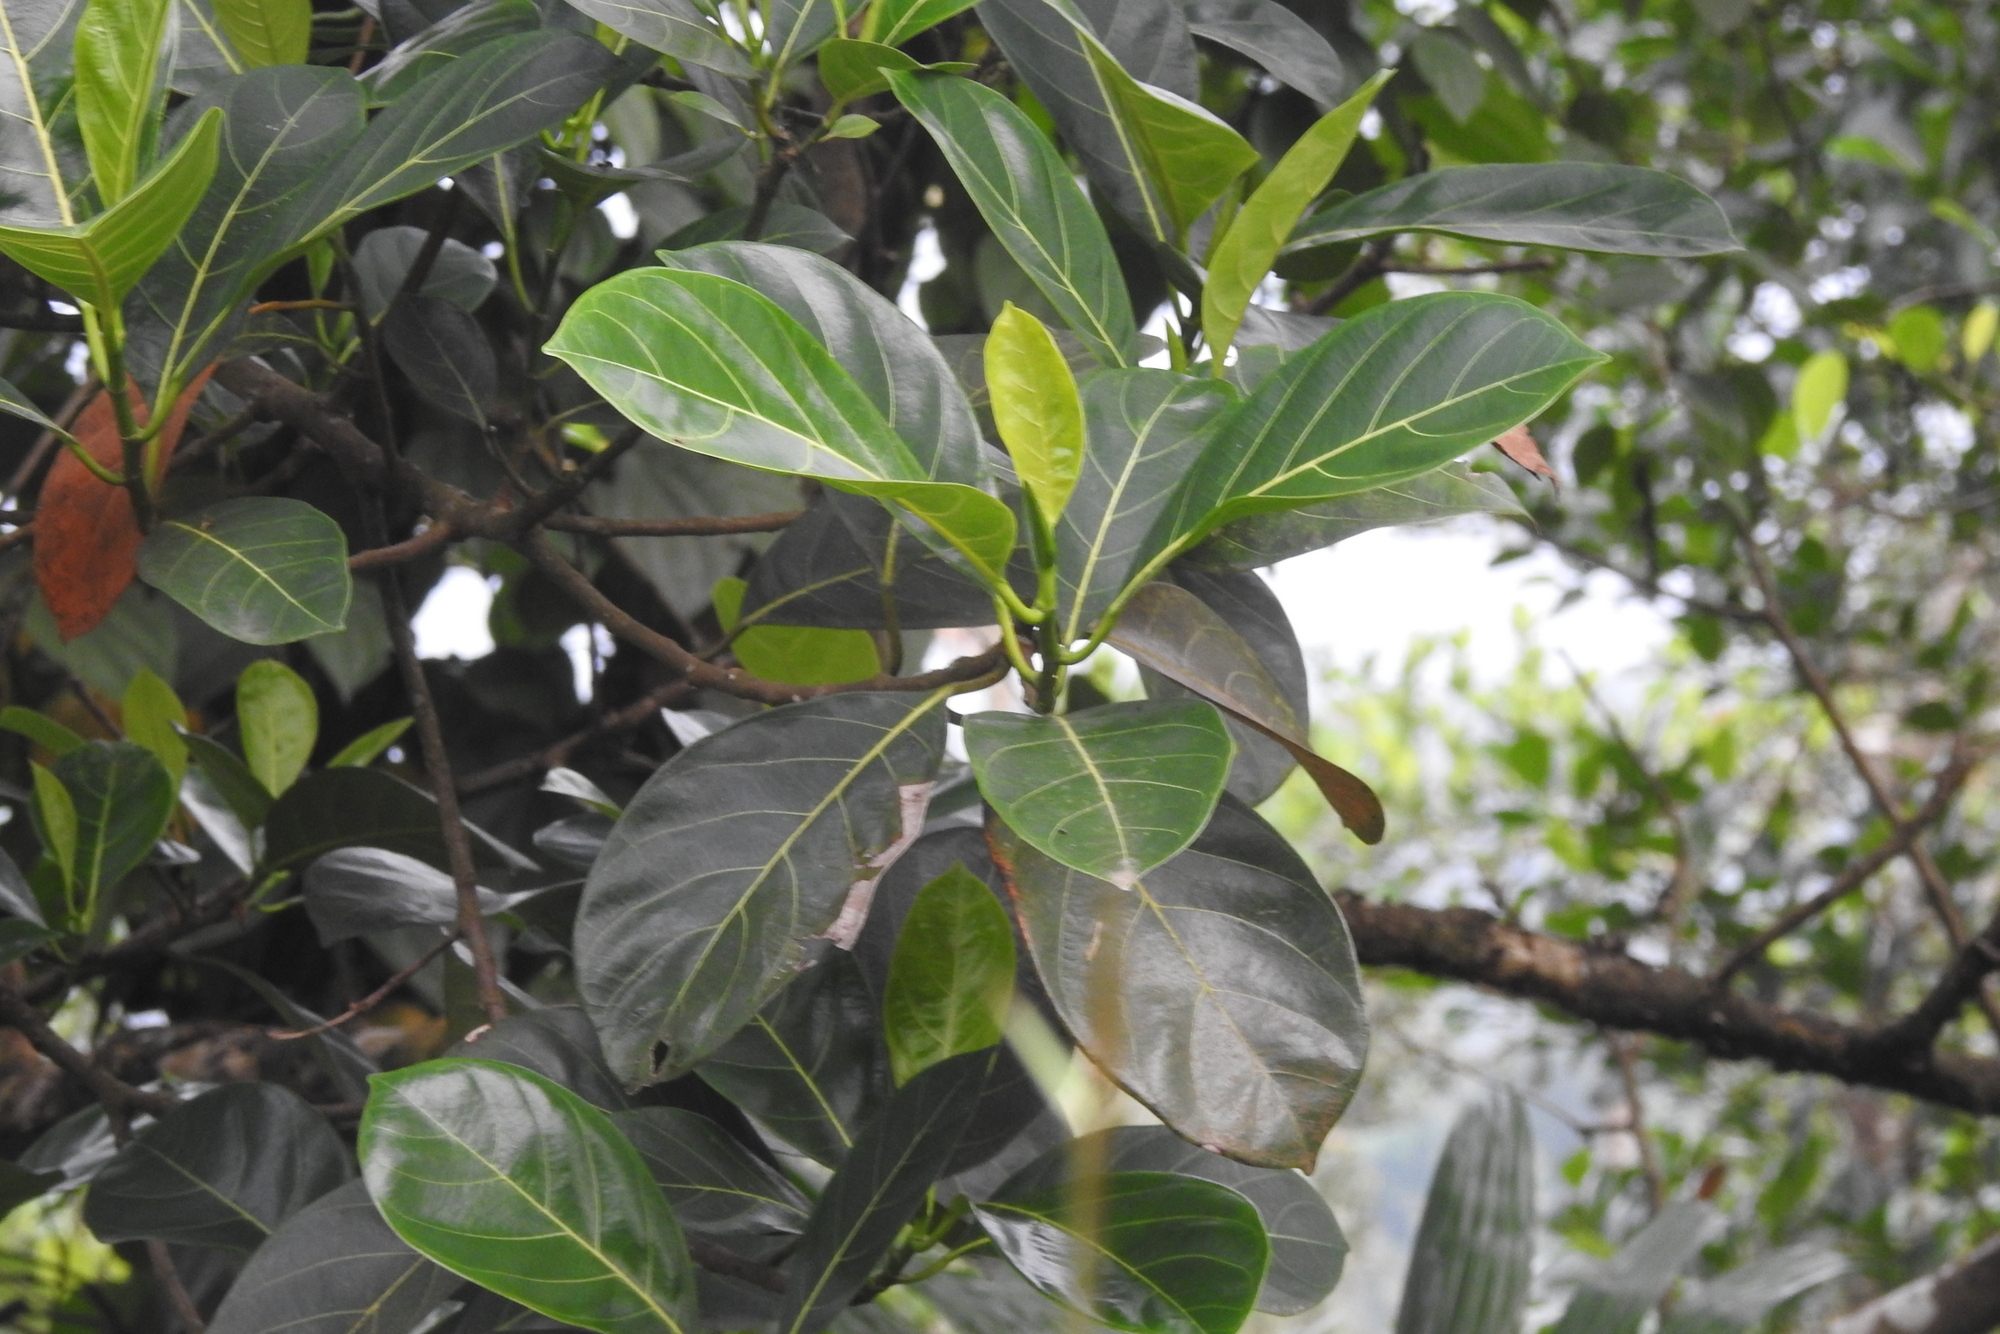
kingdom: Plantae
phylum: Tracheophyta
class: Magnoliopsida
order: Rosales
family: Moraceae
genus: Artocarpus
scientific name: Artocarpus heterophyllus
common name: Jackfruit
